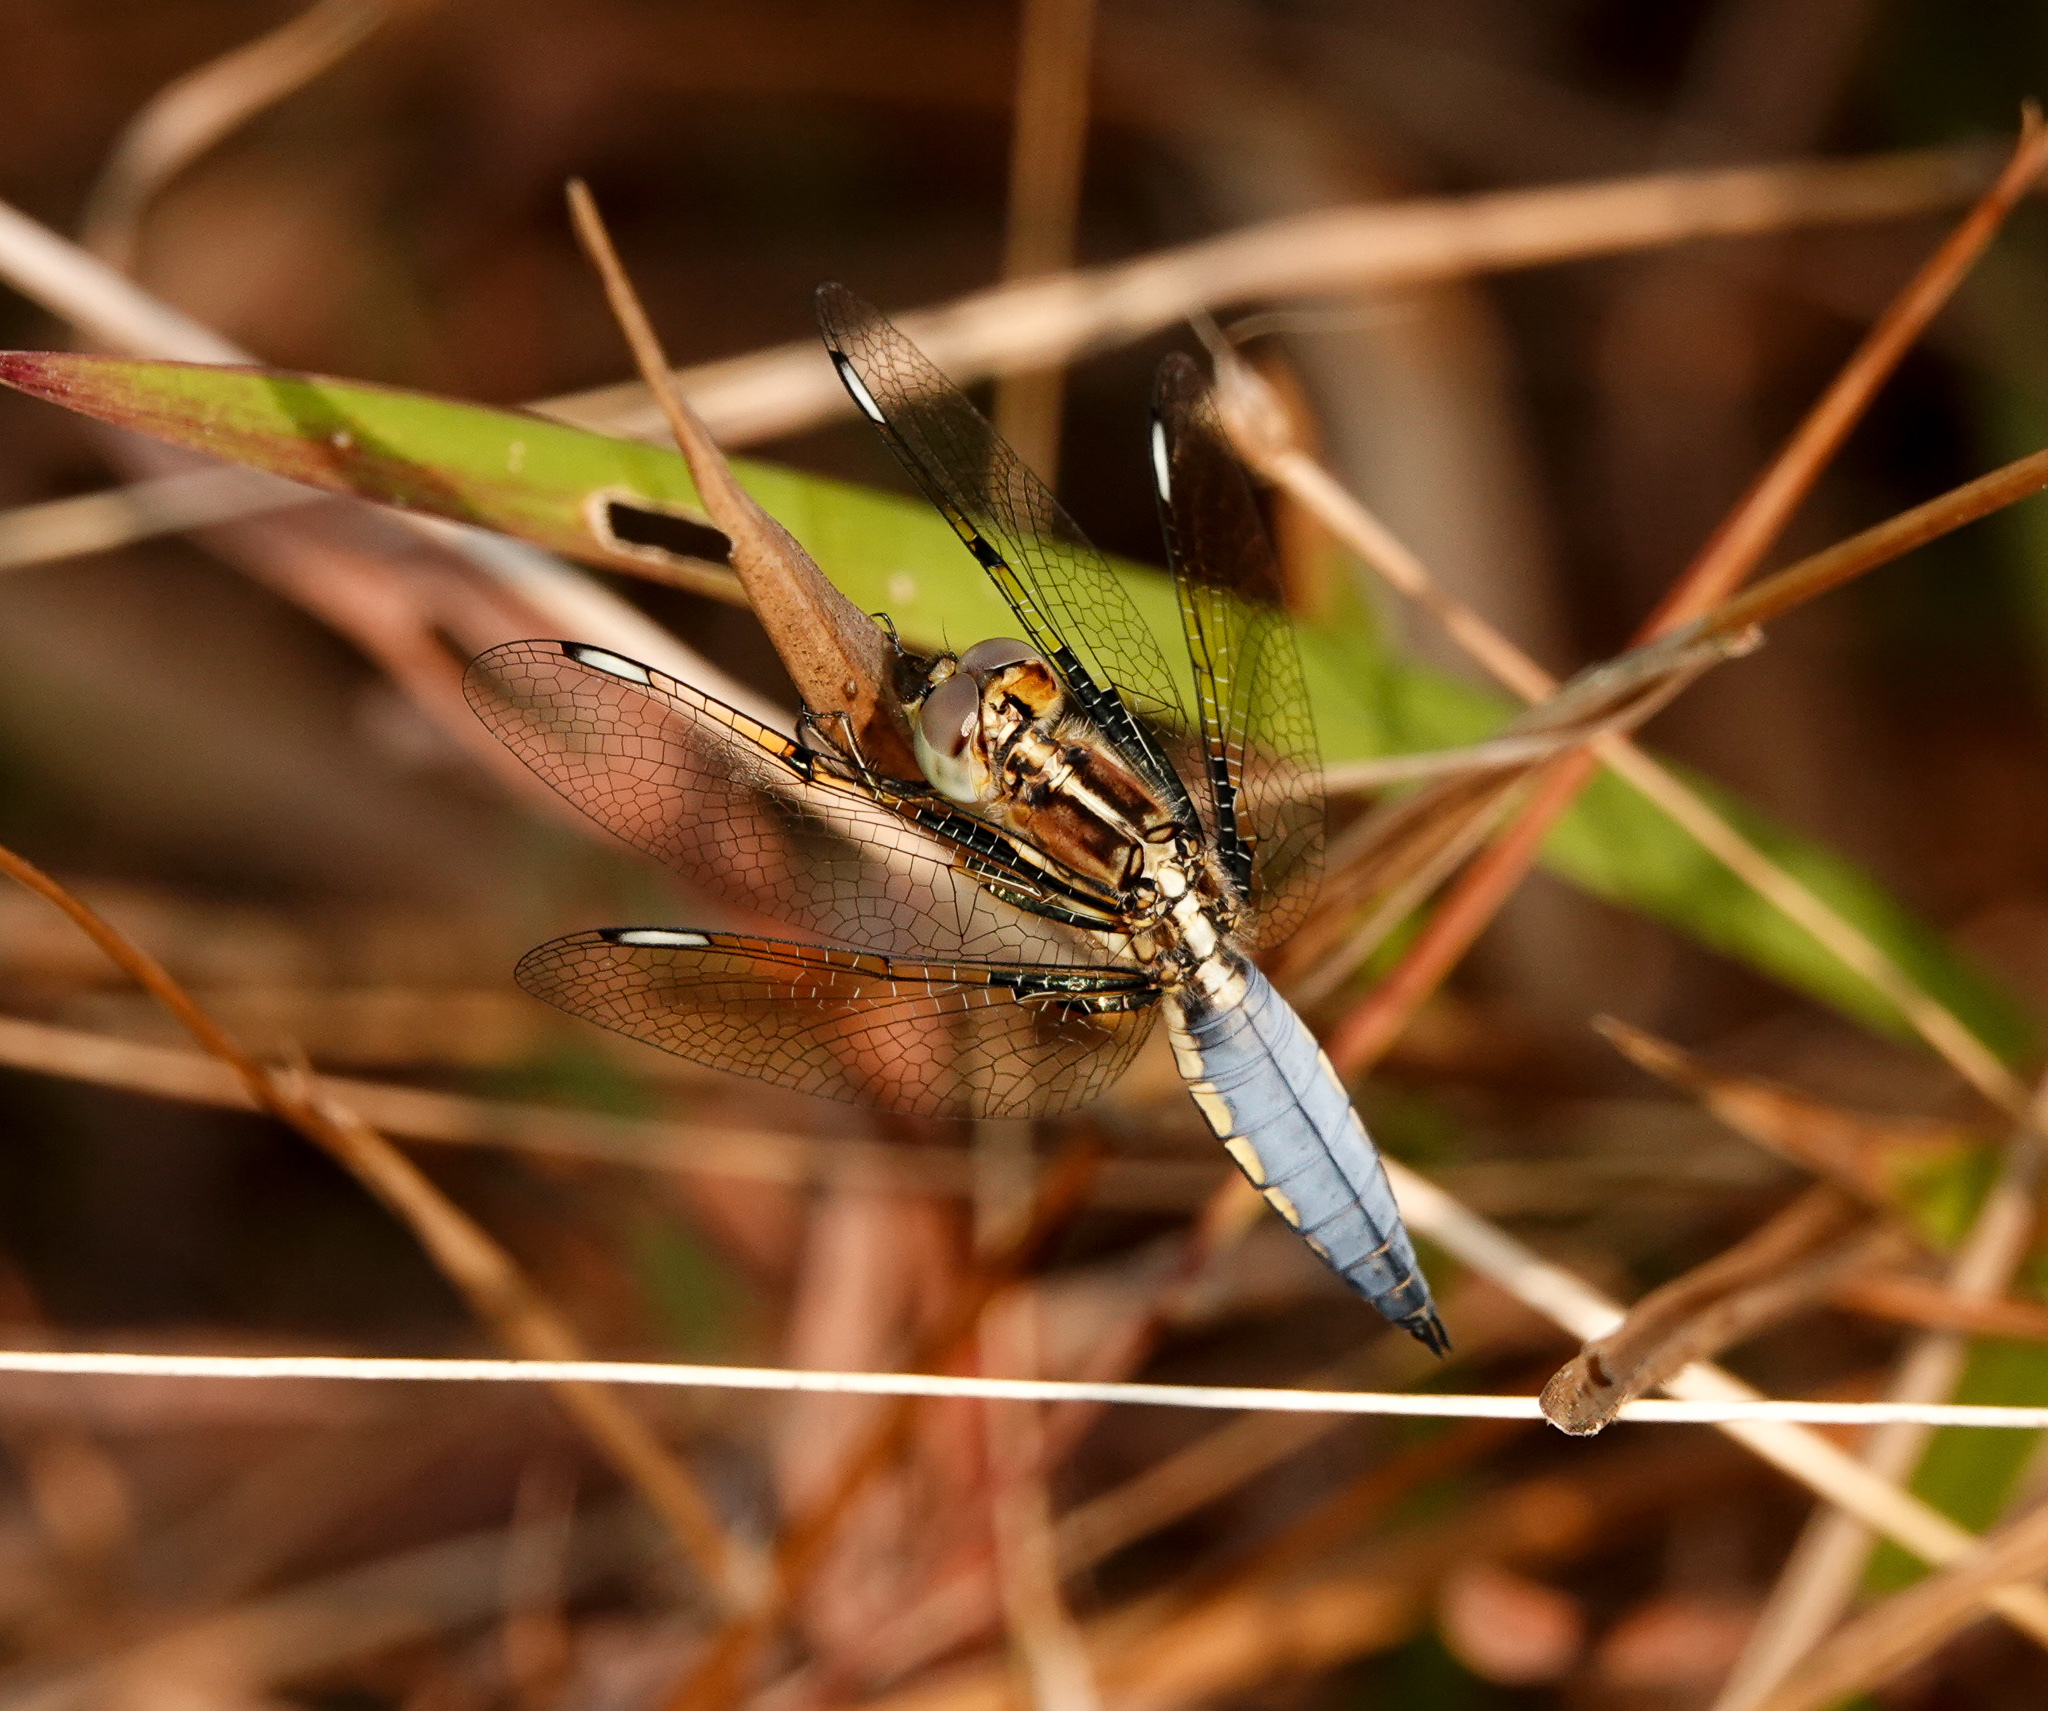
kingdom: Animalia
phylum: Arthropoda
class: Insecta
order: Odonata
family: Libellulidae
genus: Palpopleura
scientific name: Palpopleura sexmaculata
